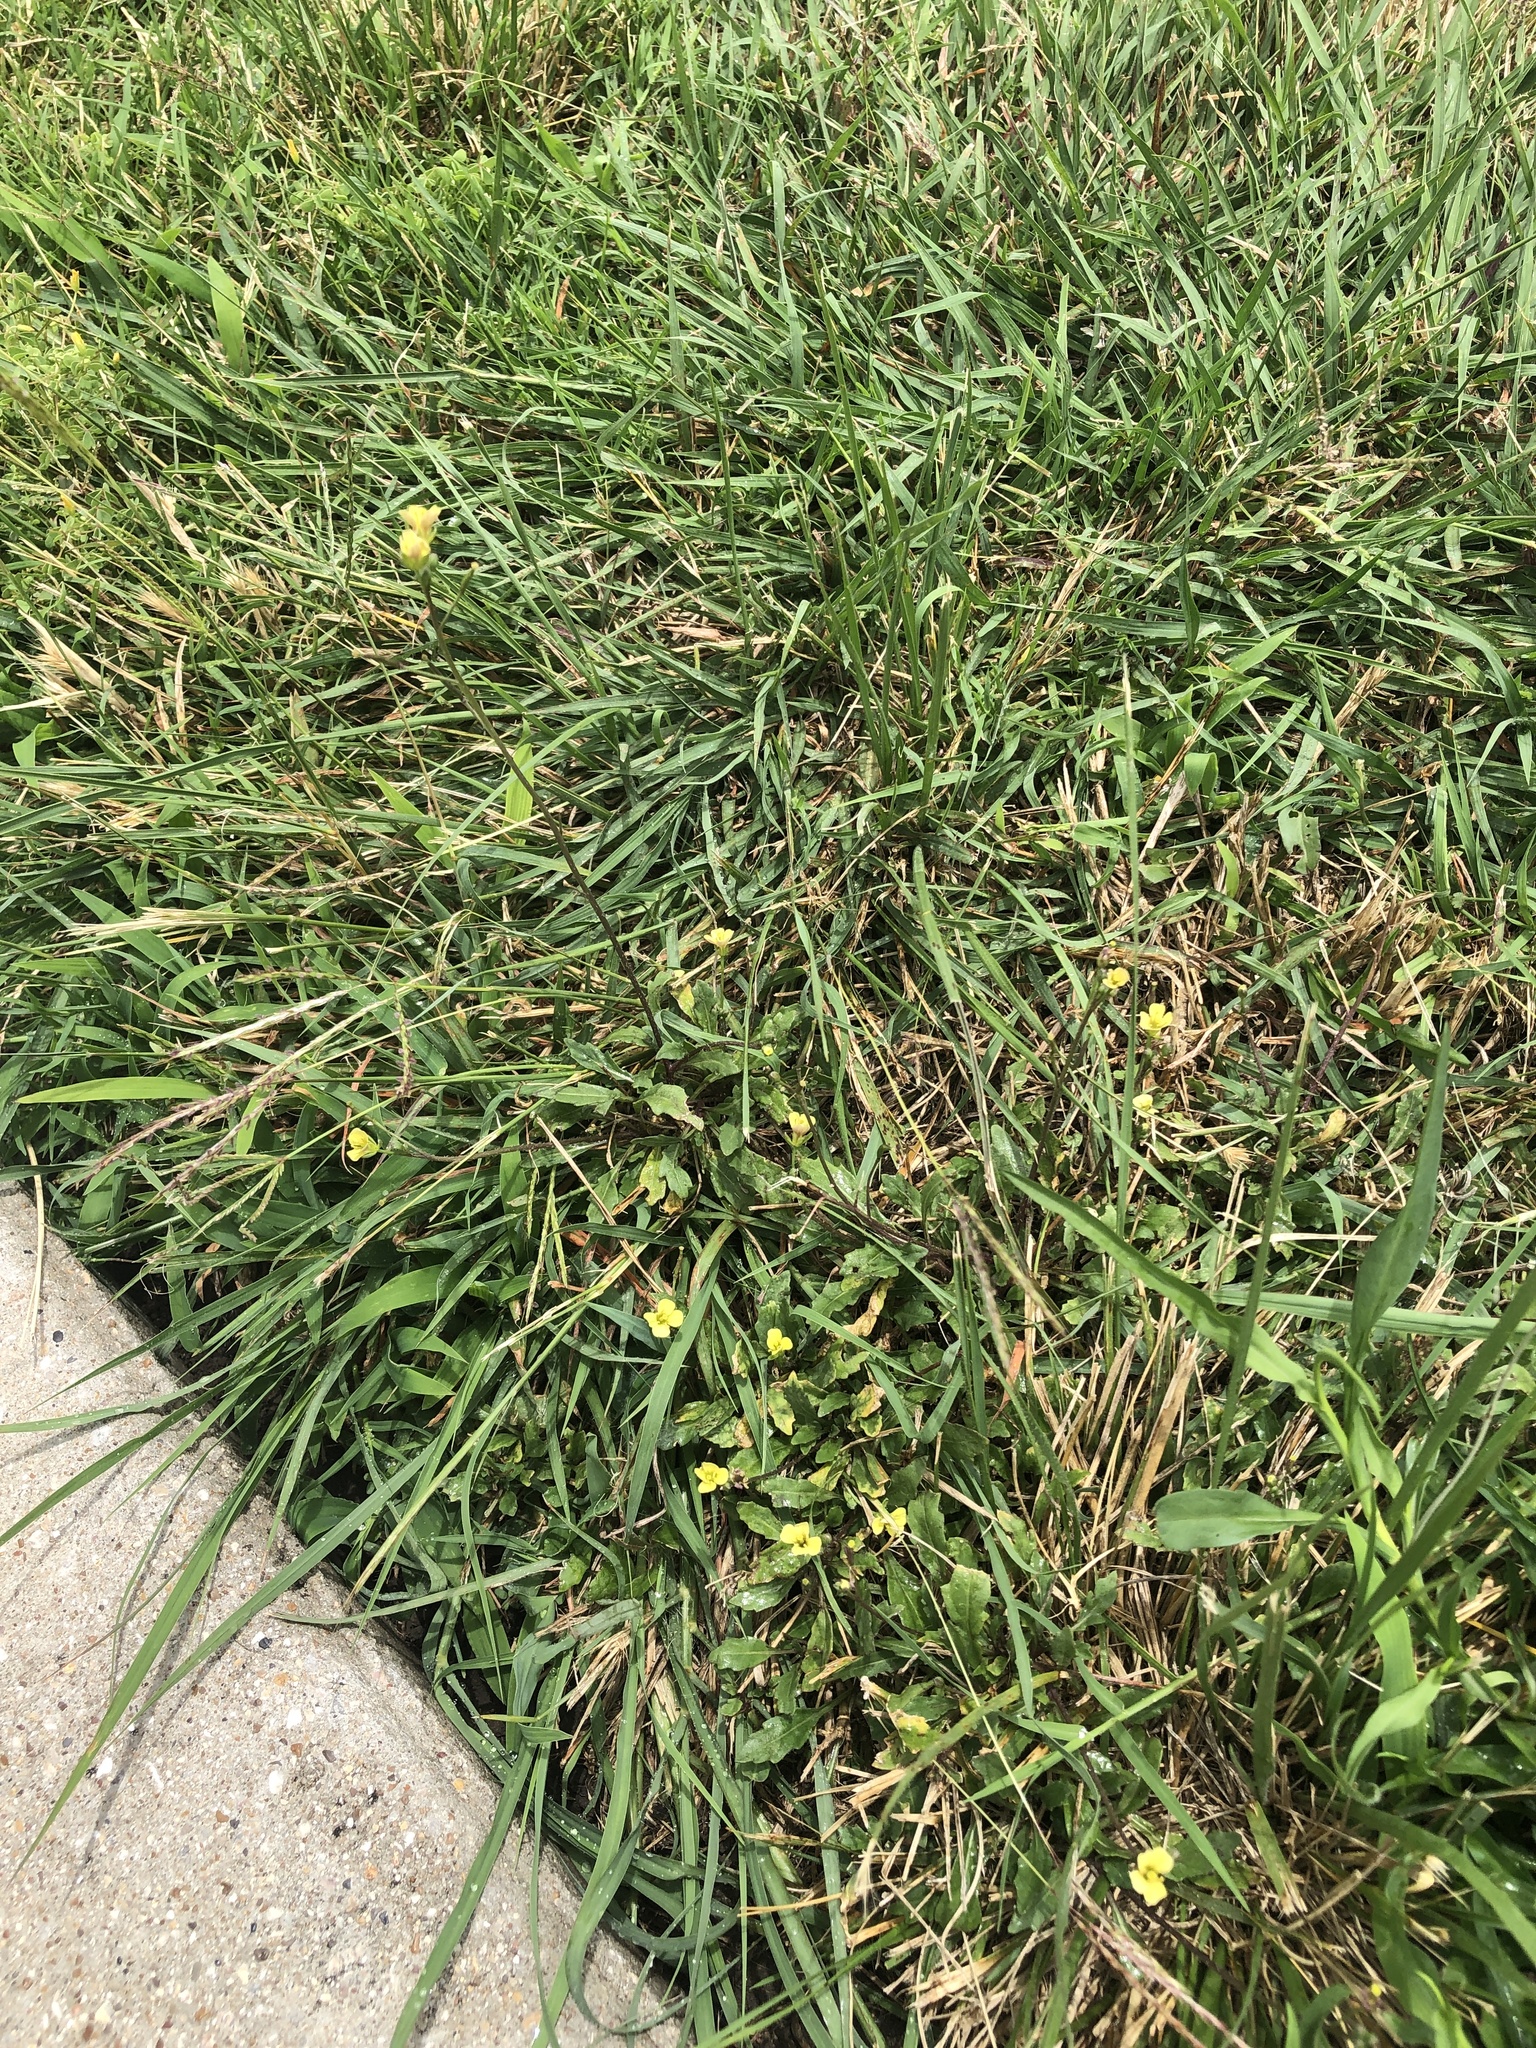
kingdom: Plantae
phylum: Tracheophyta
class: Magnoliopsida
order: Brassicales
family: Brassicaceae
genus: Diplotaxis
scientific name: Diplotaxis muralis
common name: Annual wall-rocket
